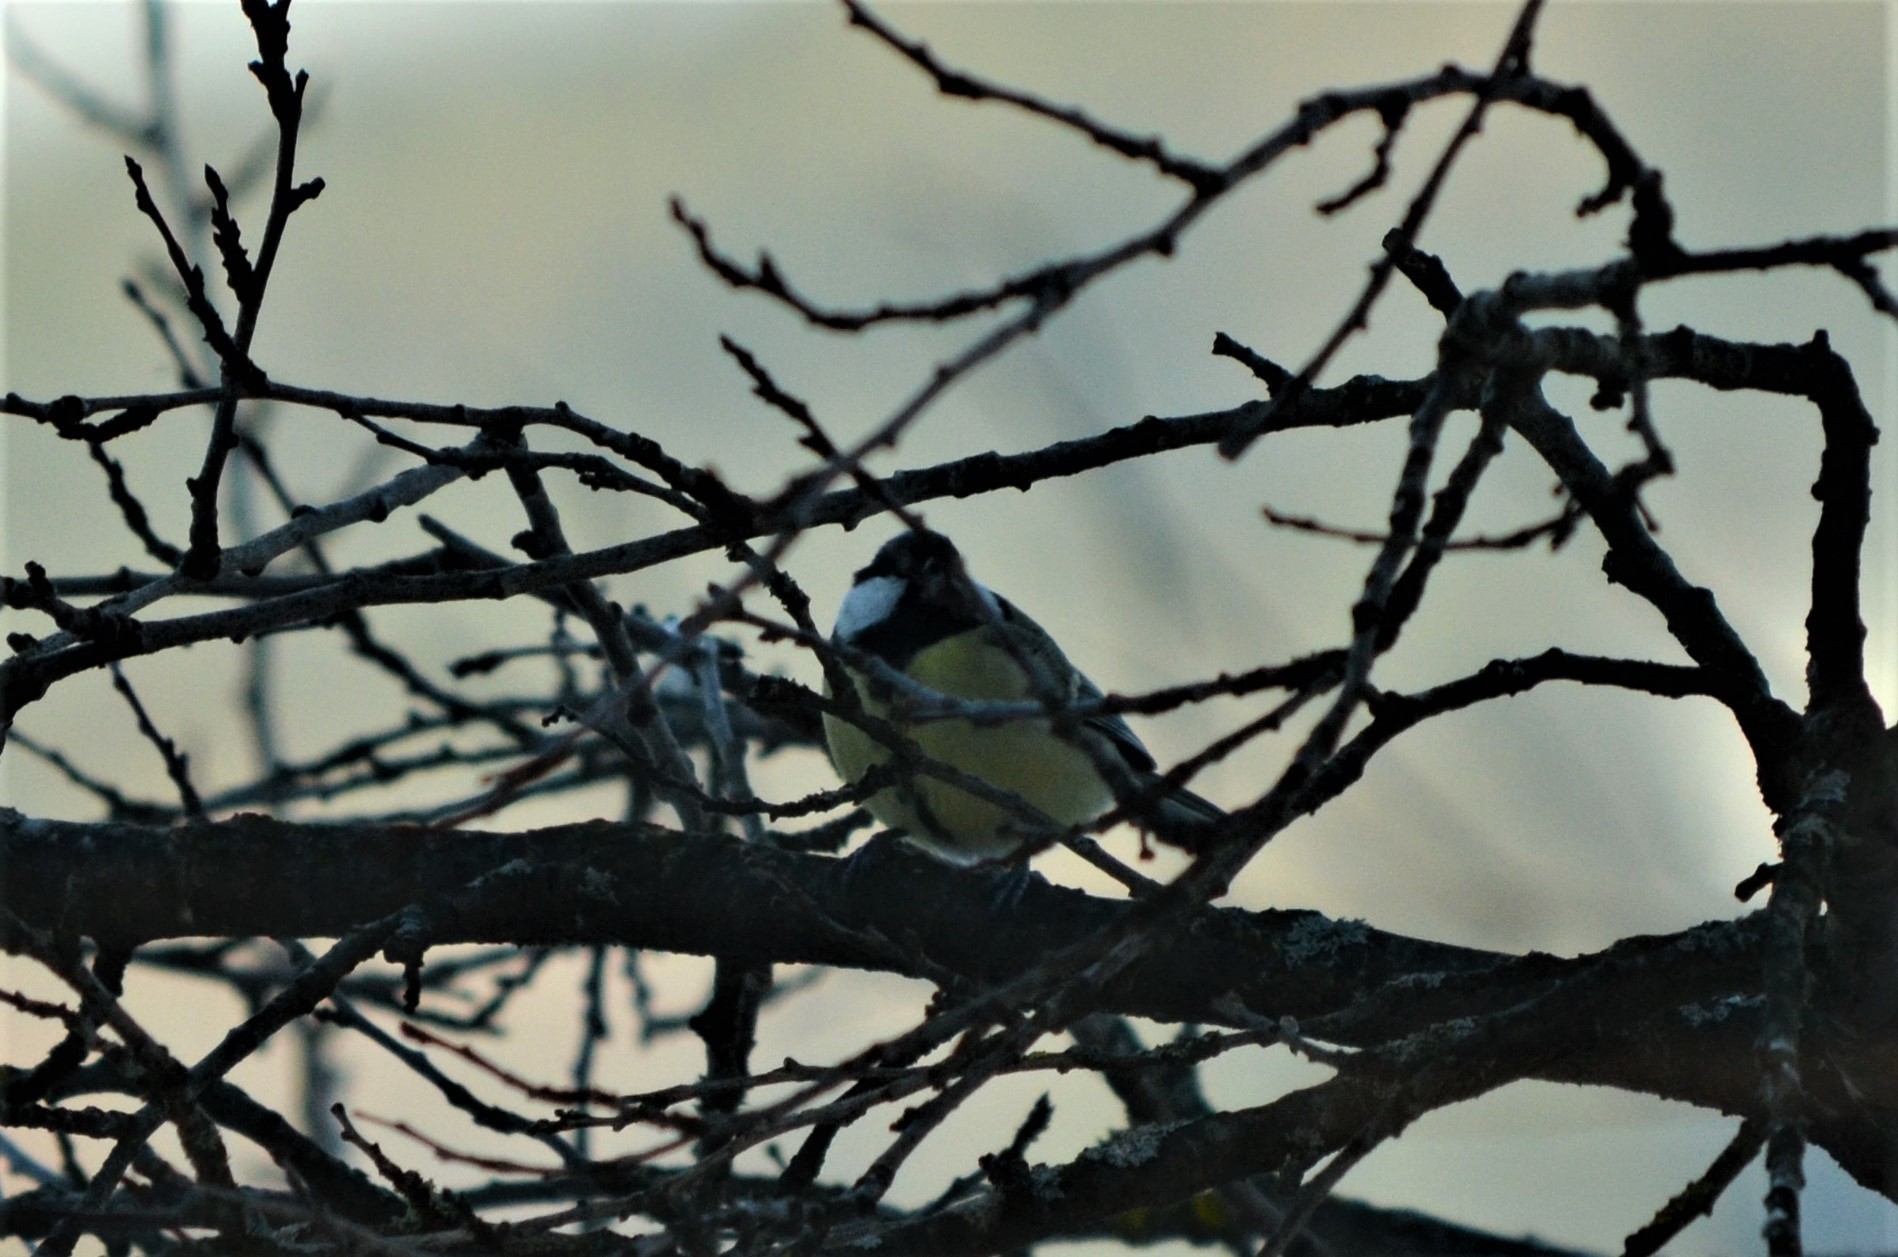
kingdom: Animalia
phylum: Chordata
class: Aves
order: Passeriformes
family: Paridae
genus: Parus
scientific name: Parus major
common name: Great tit
